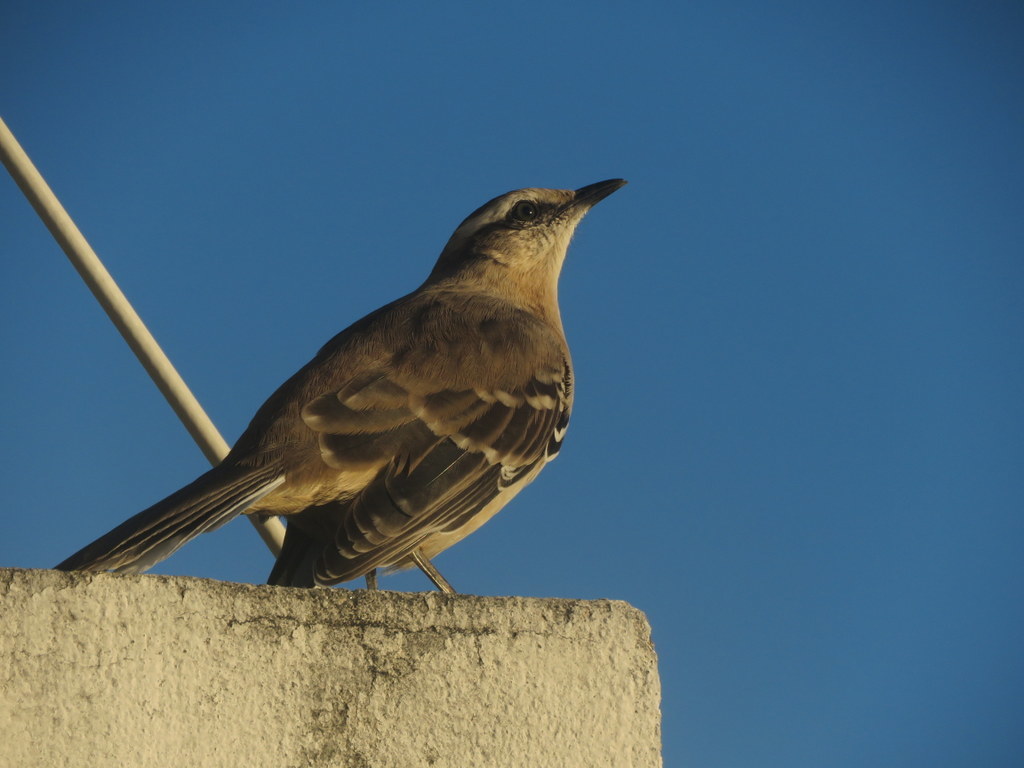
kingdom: Animalia
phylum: Chordata
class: Aves
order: Passeriformes
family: Mimidae
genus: Mimus
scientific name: Mimus saturninus
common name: Chalk-browed mockingbird
